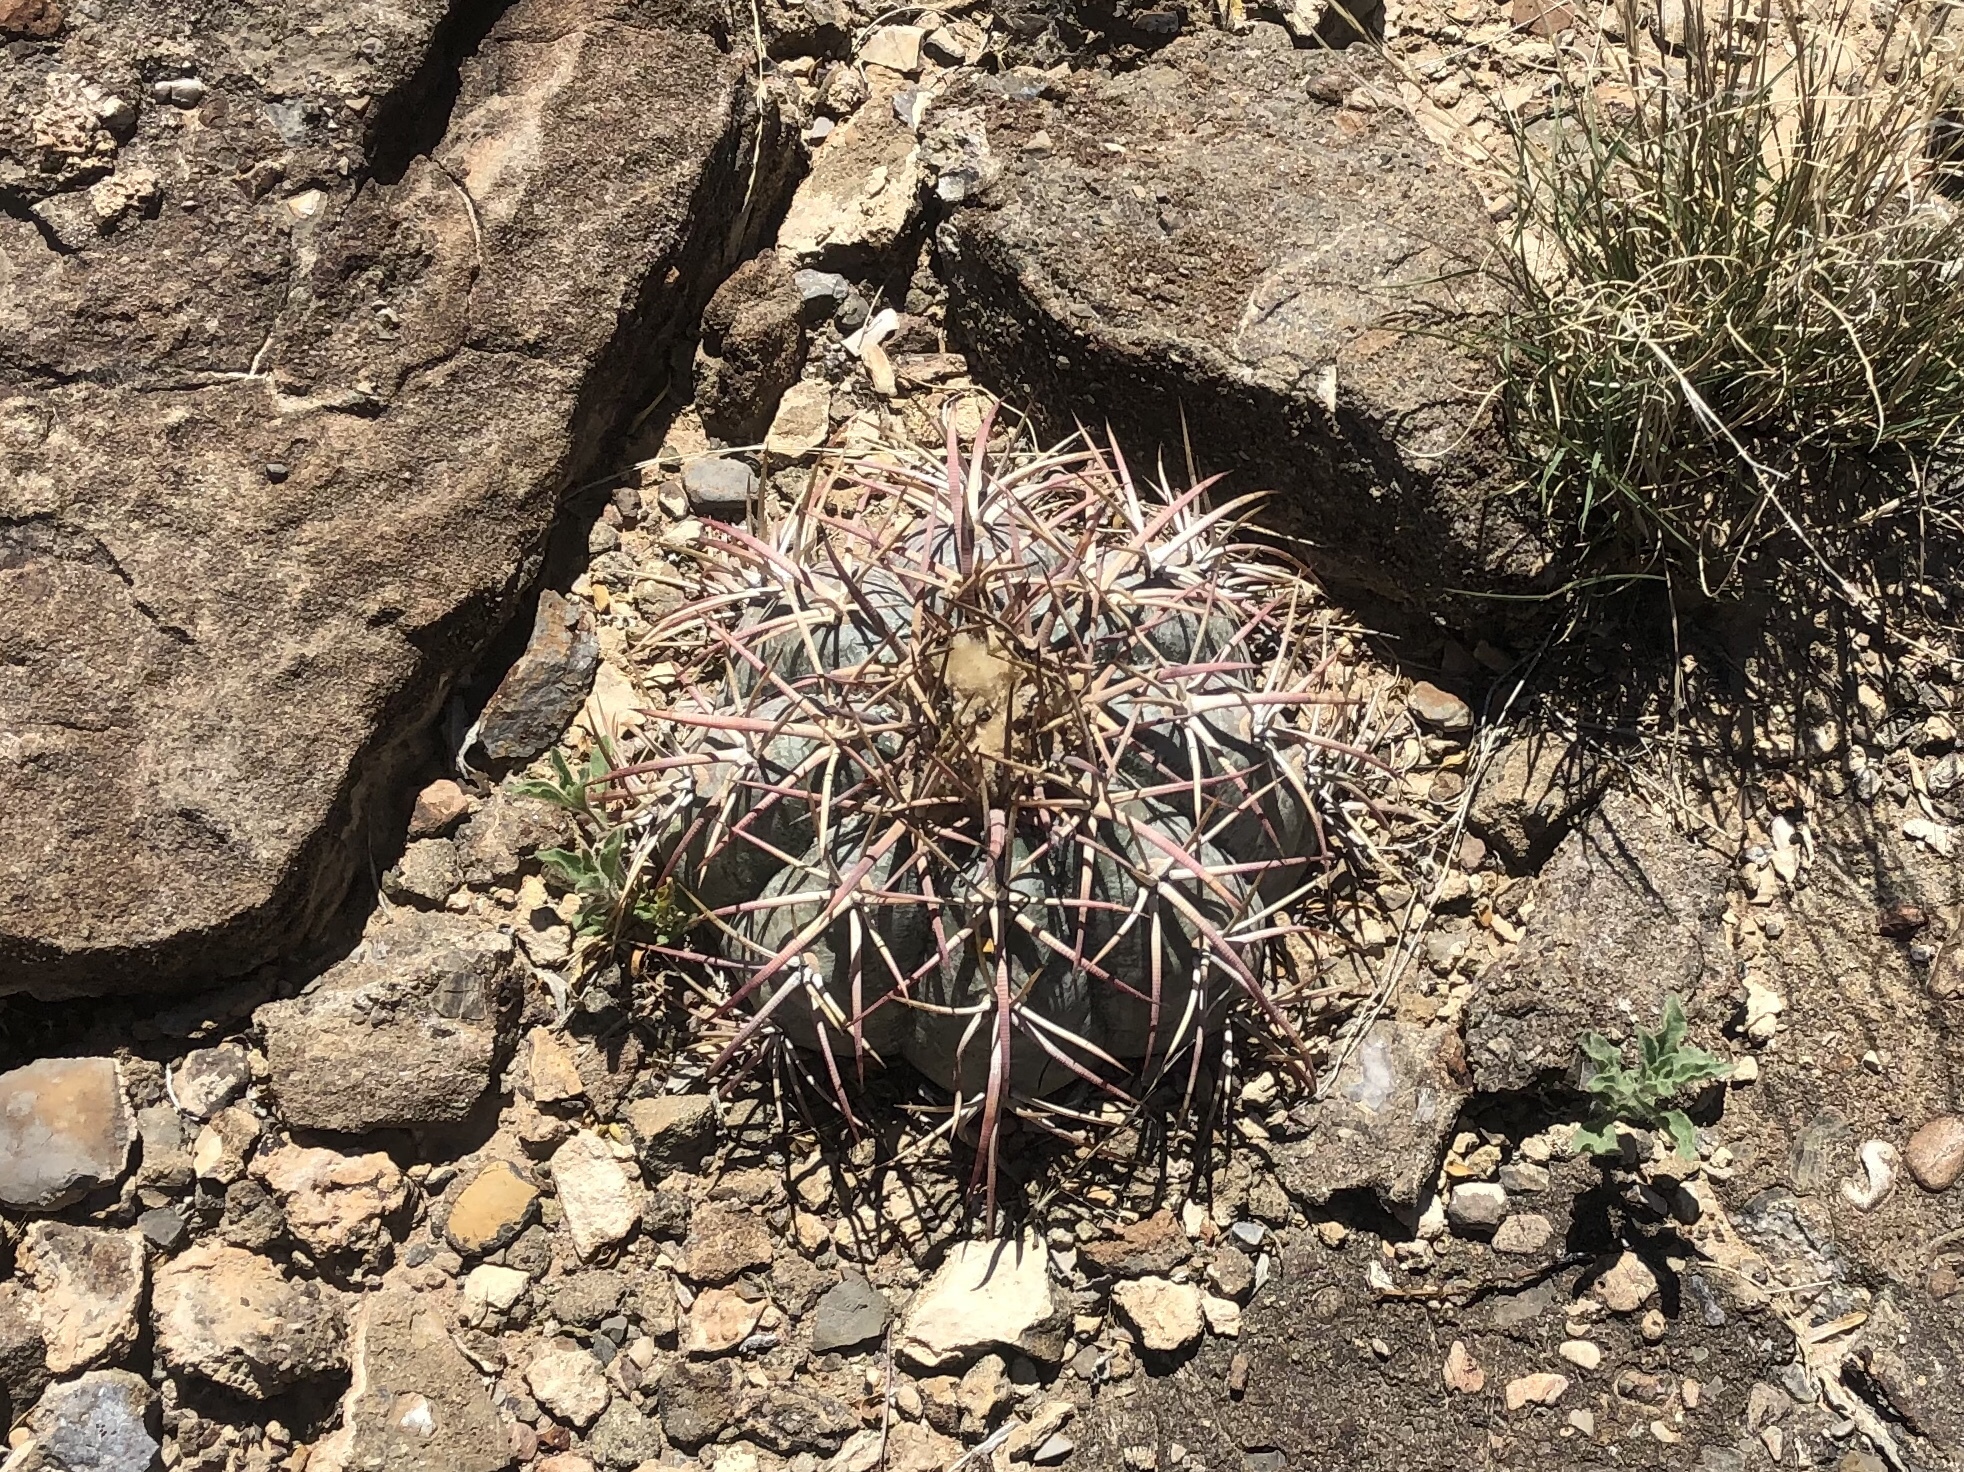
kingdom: Plantae
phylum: Tracheophyta
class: Magnoliopsida
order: Caryophyllales
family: Cactaceae
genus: Echinocactus
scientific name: Echinocactus horizonthalonius
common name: Devilshead
